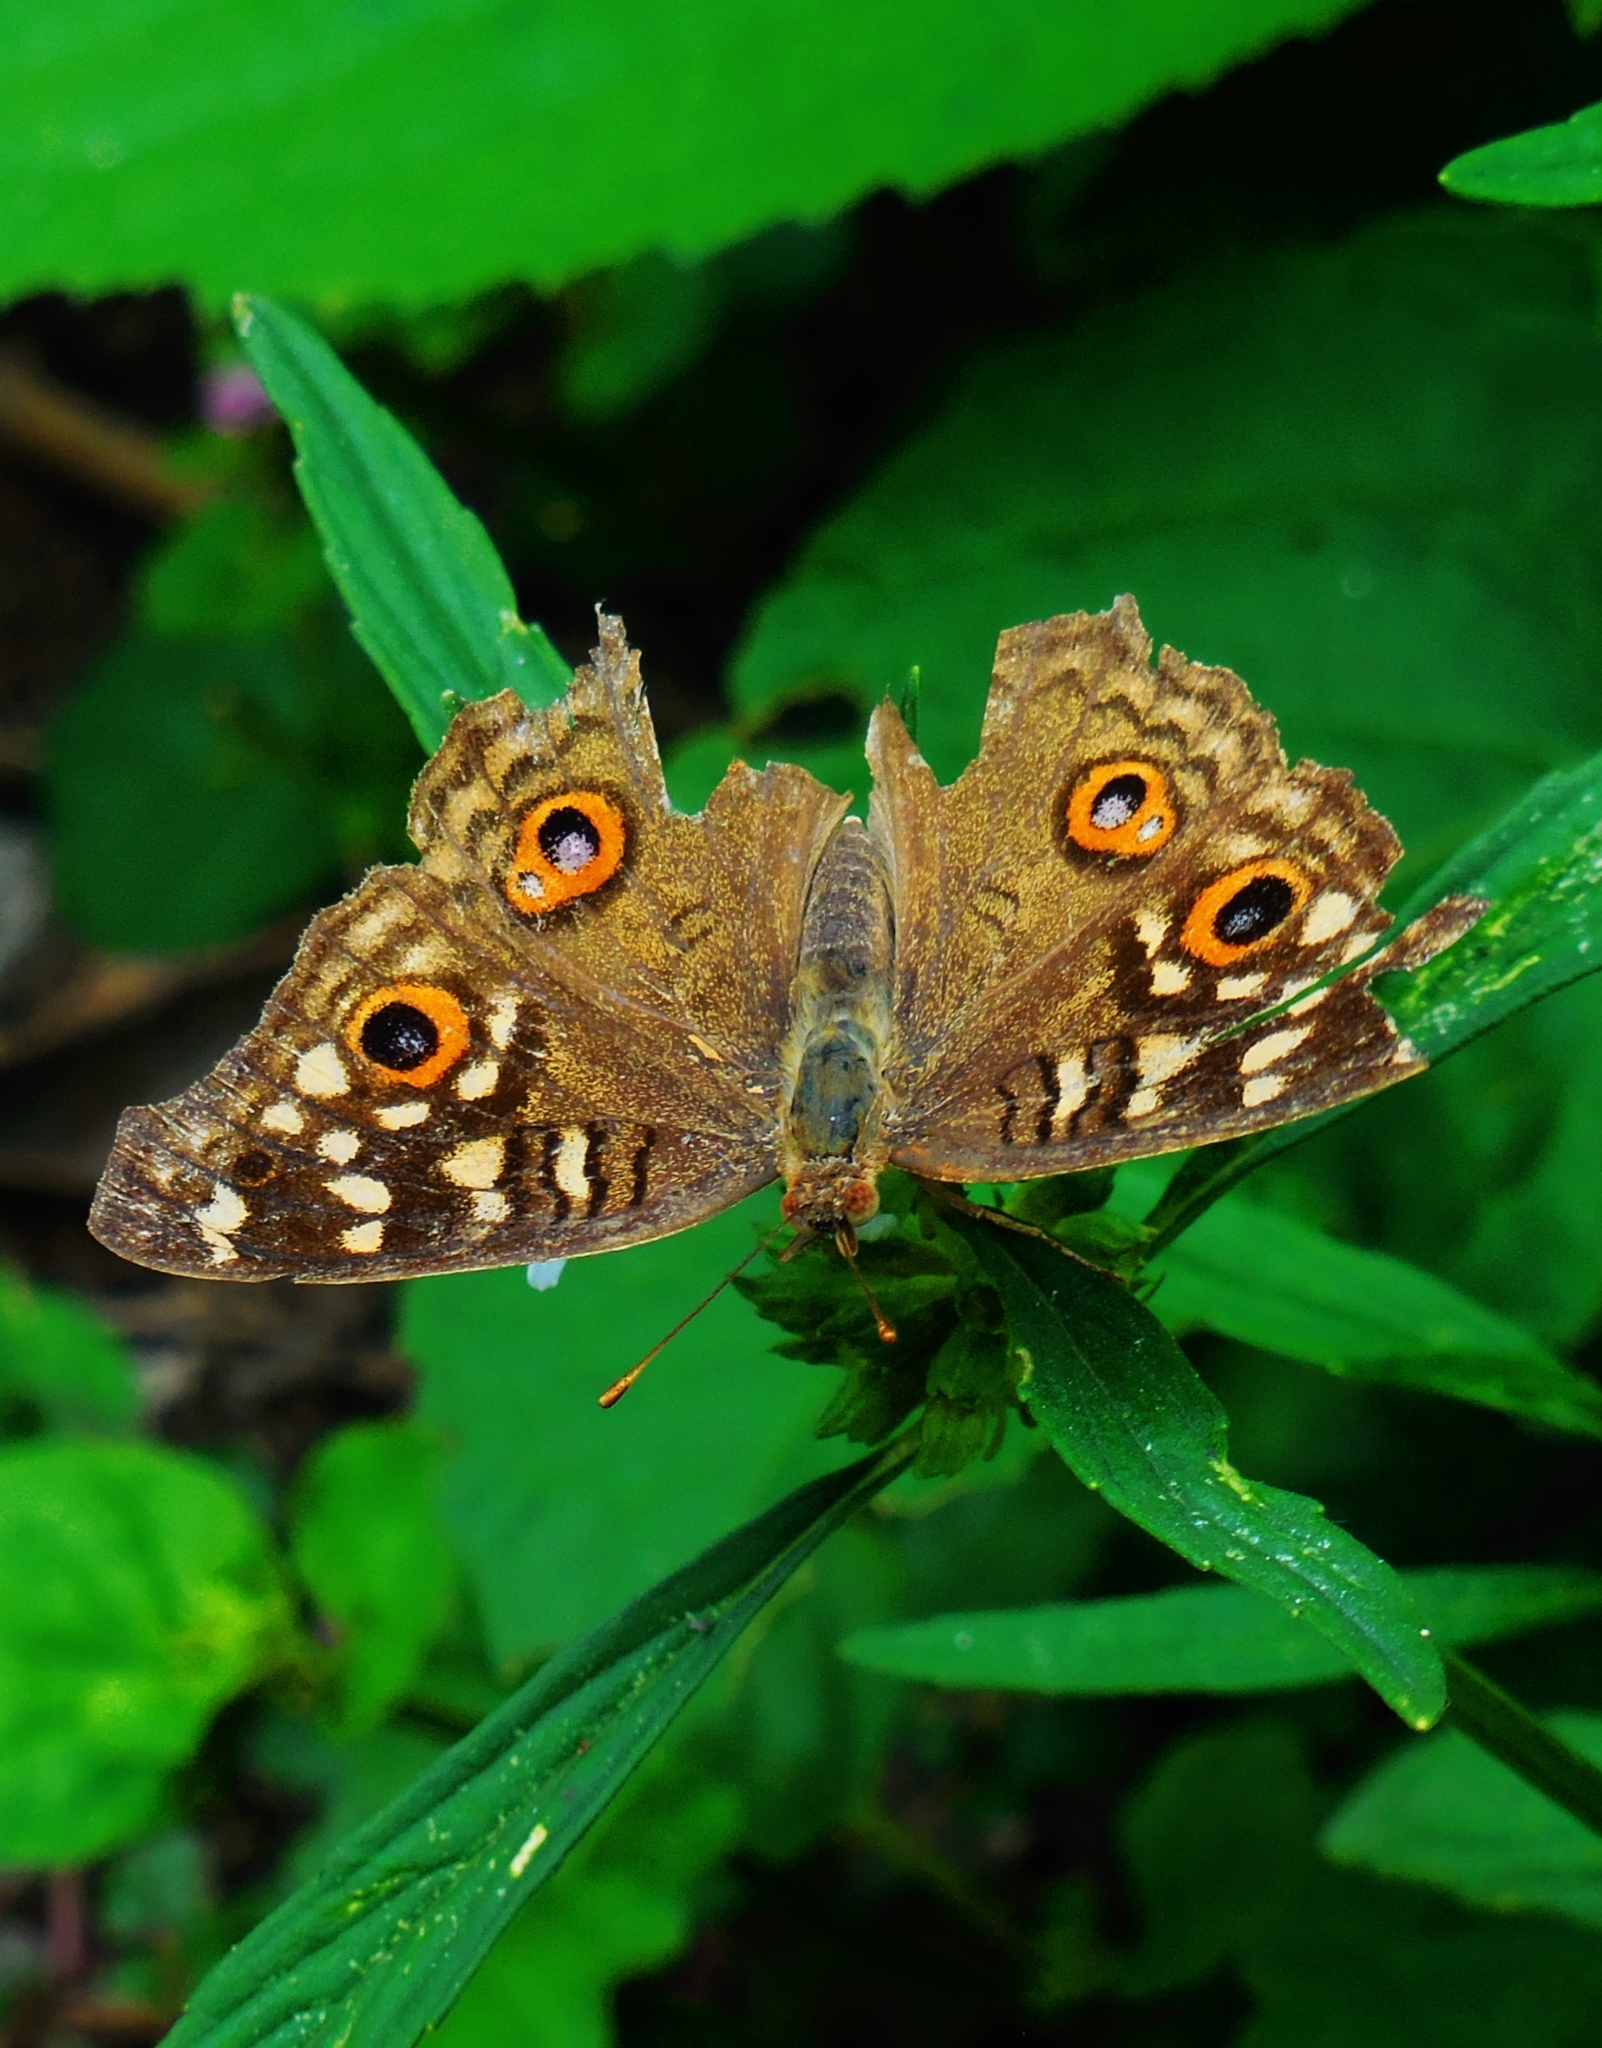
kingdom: Animalia
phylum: Arthropoda
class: Insecta
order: Lepidoptera
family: Nymphalidae
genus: Junonia
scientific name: Junonia lemonias
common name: Lemon pansy
